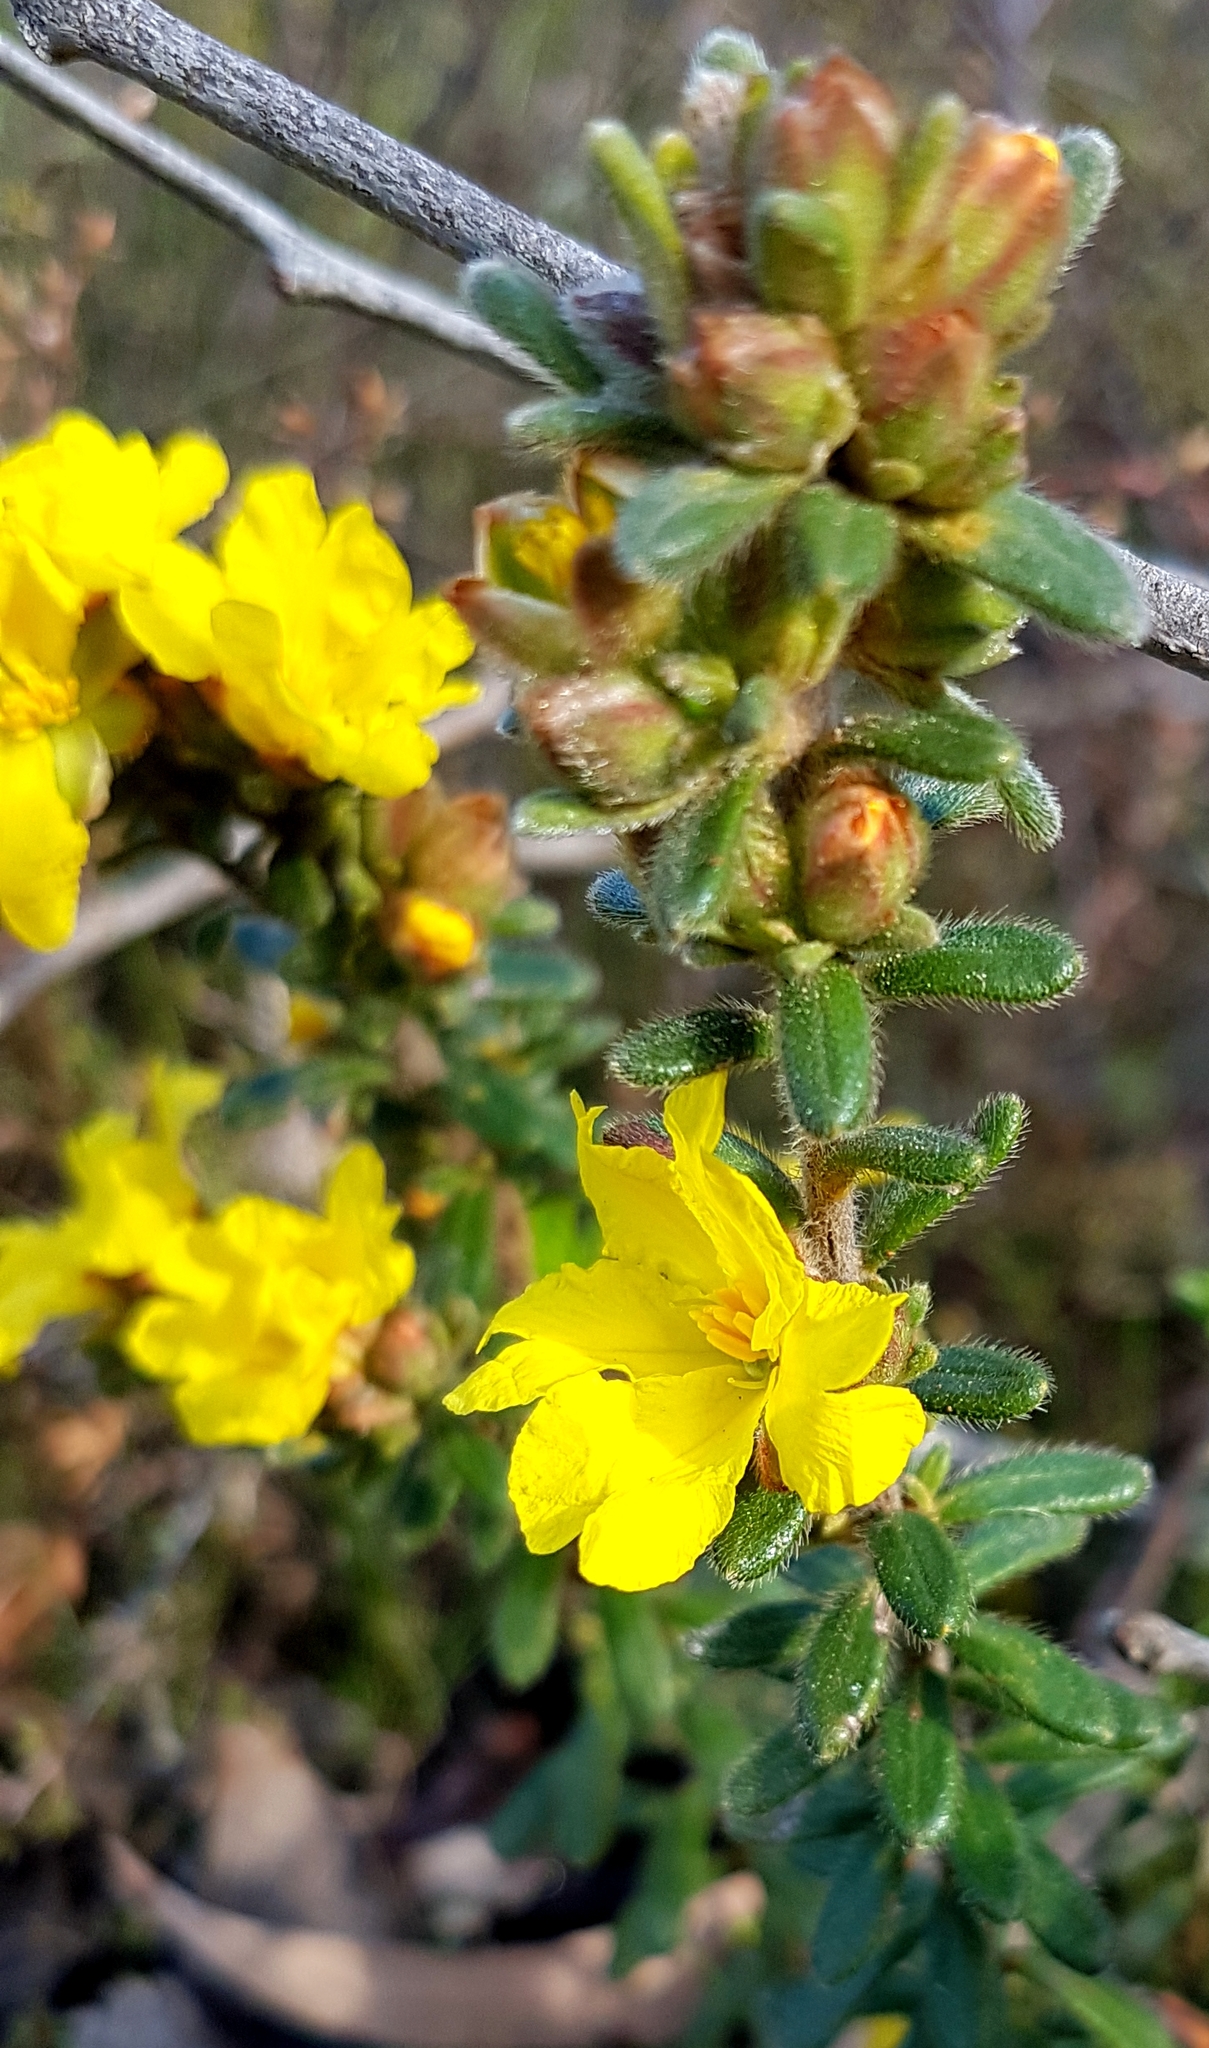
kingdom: Plantae
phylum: Tracheophyta
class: Magnoliopsida
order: Dilleniales
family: Dilleniaceae
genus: Hibbertia
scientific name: Hibbertia sericea
